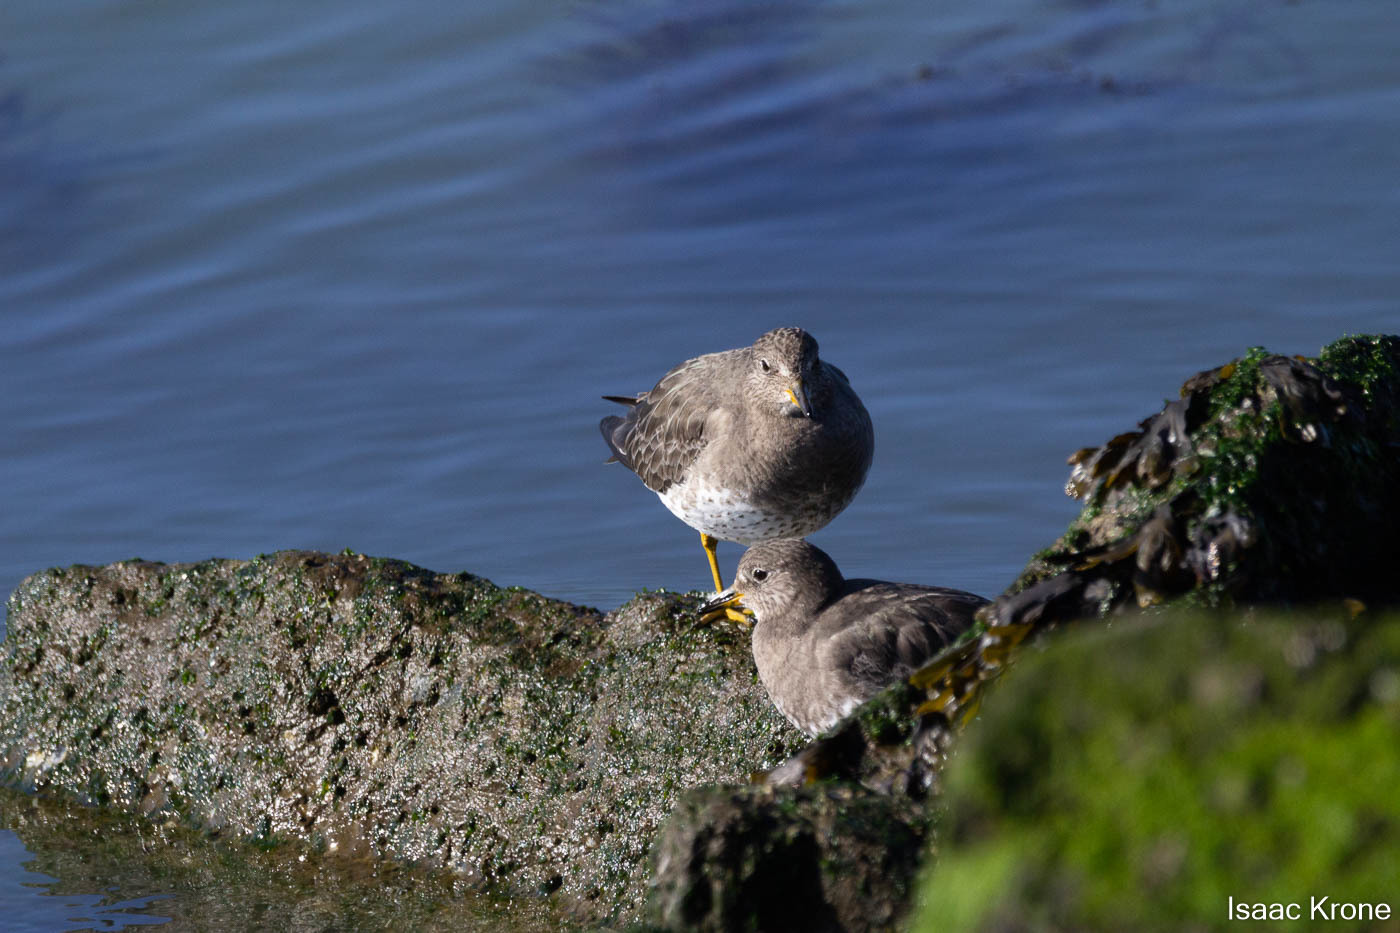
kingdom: Animalia
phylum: Chordata
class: Aves
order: Charadriiformes
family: Scolopacidae
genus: Calidris
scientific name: Calidris virgata
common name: Surfbird
